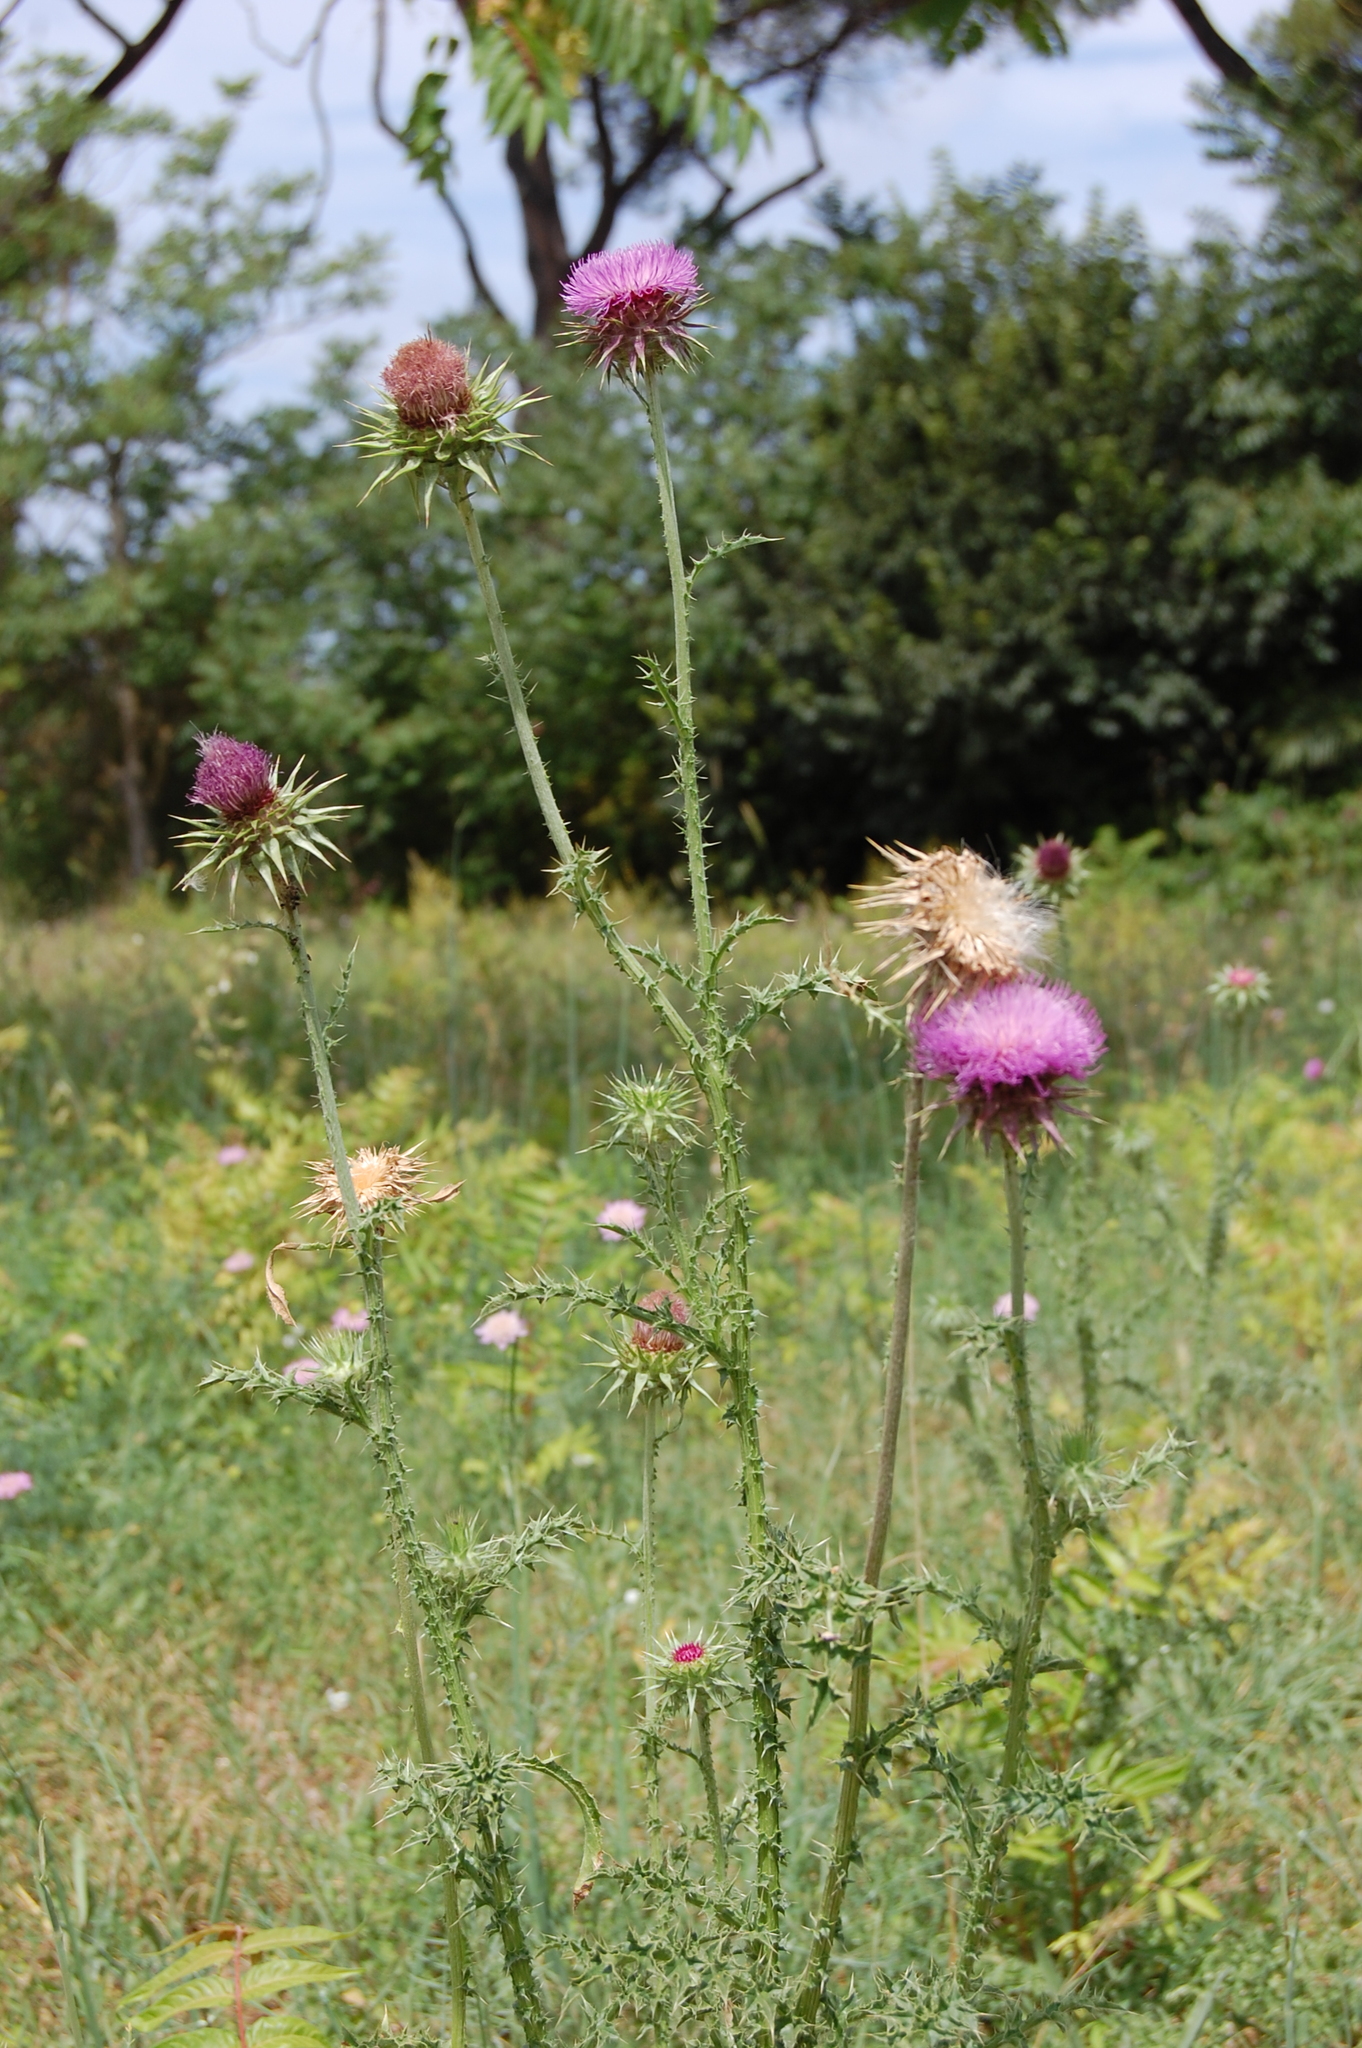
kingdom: Plantae
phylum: Tracheophyta
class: Magnoliopsida
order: Asterales
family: Asteraceae
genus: Carduus
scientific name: Carduus nutans
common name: Musk thistle
